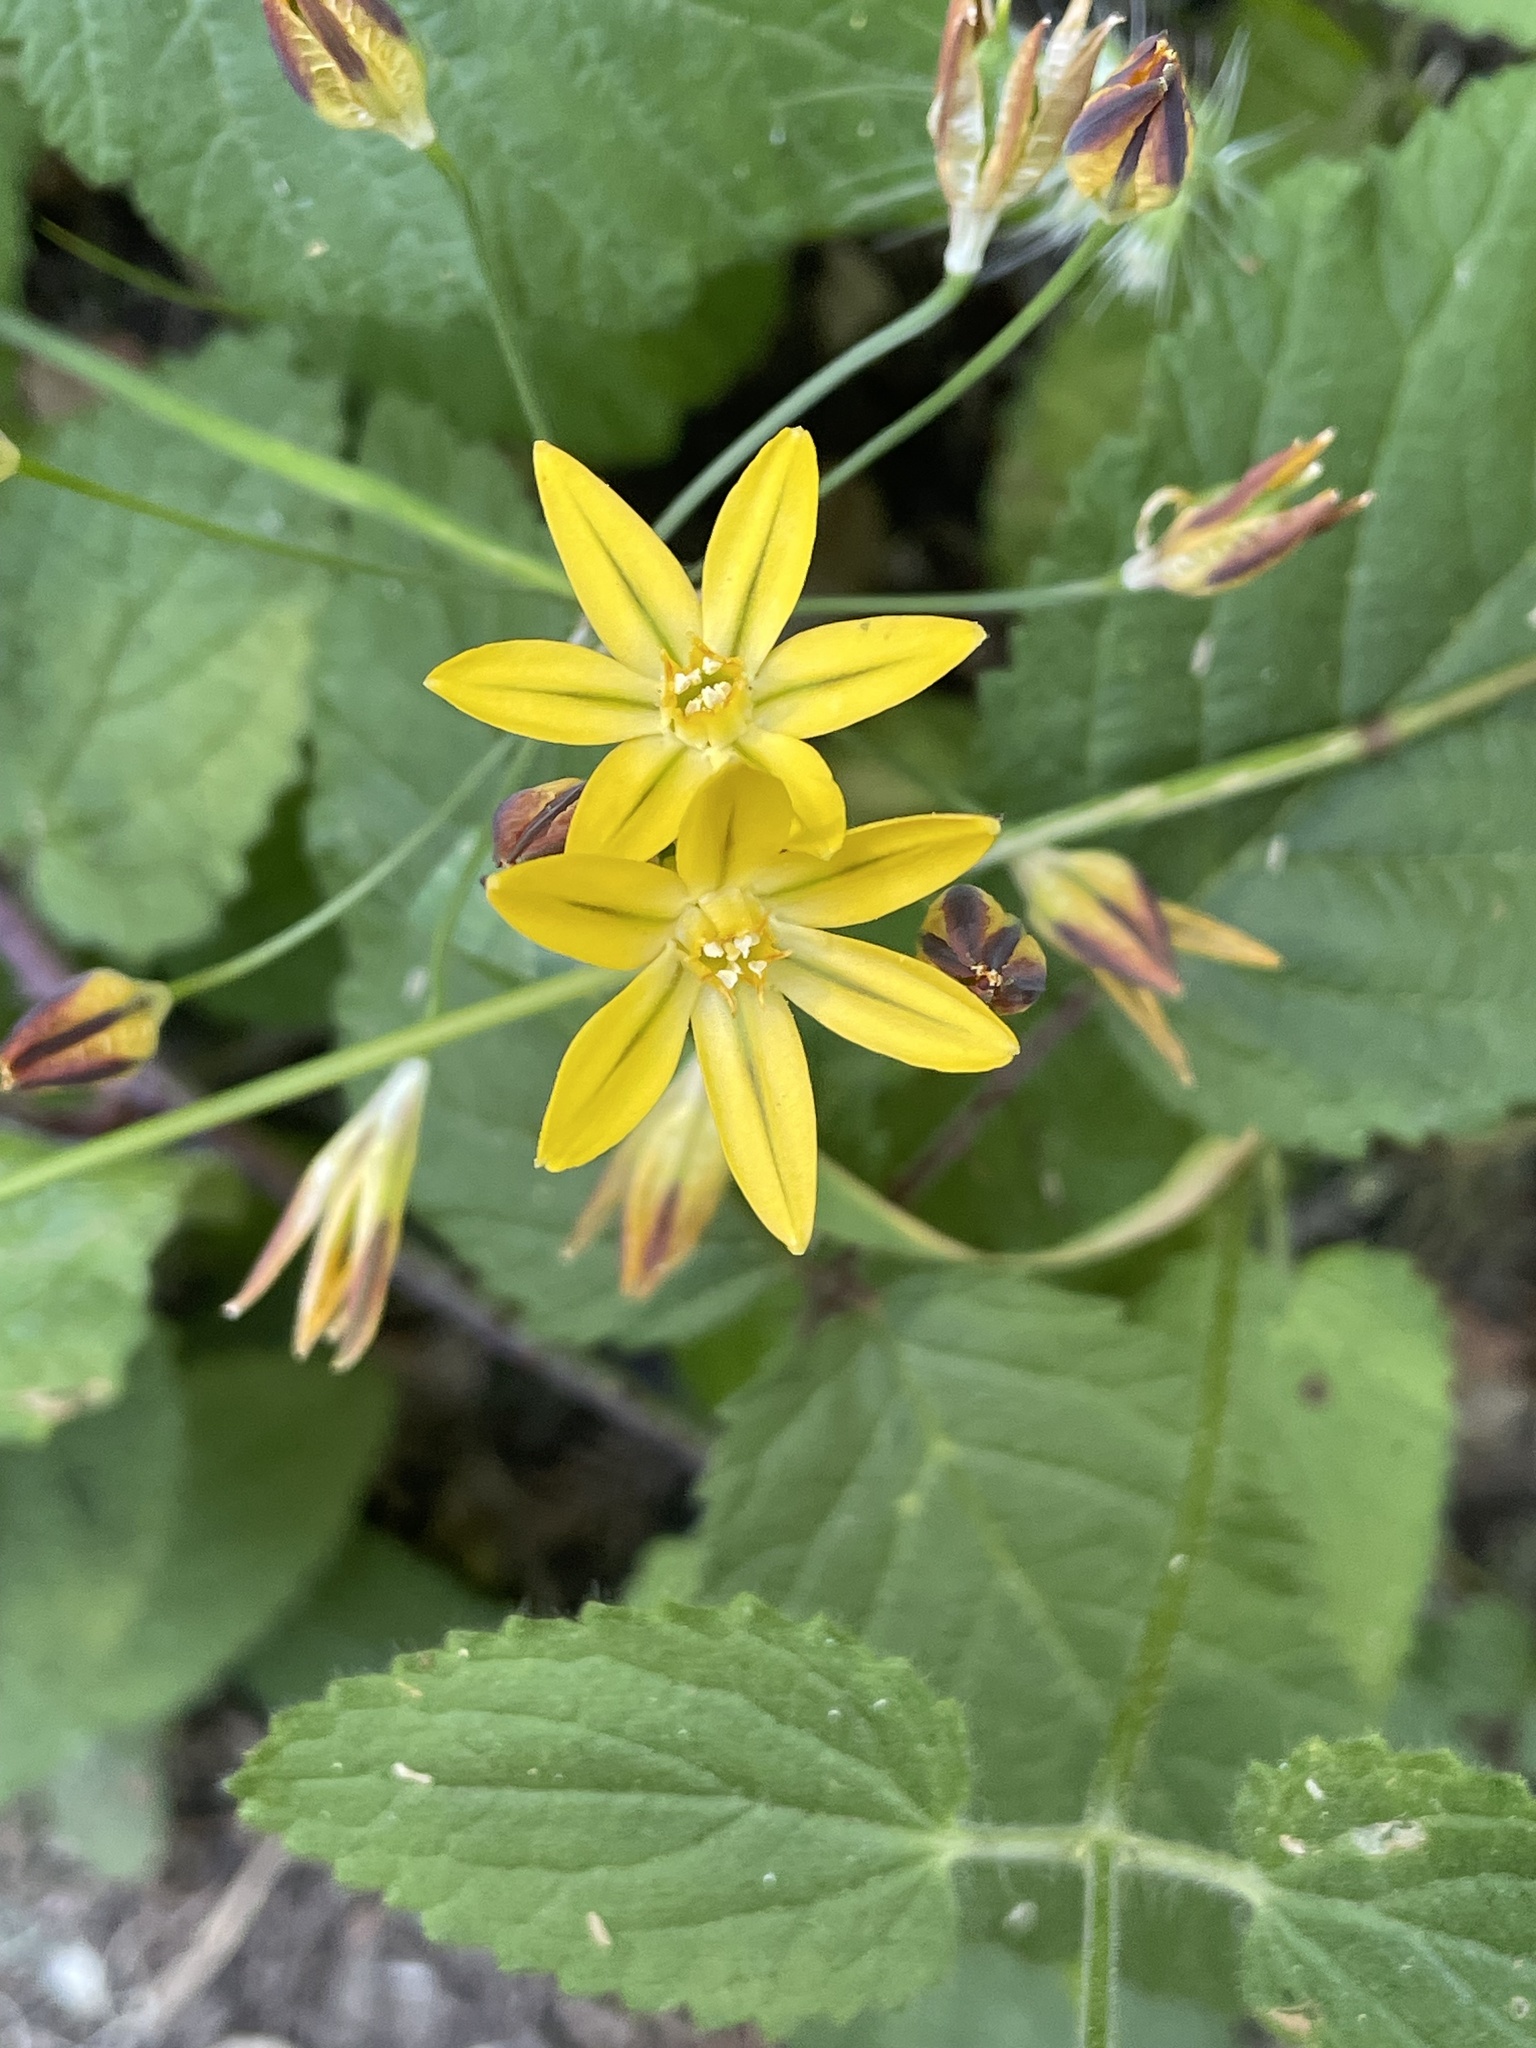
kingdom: Plantae
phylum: Tracheophyta
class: Liliopsida
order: Asparagales
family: Asparagaceae
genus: Triteleia
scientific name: Triteleia ixioides
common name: Yellow-brodiaea
